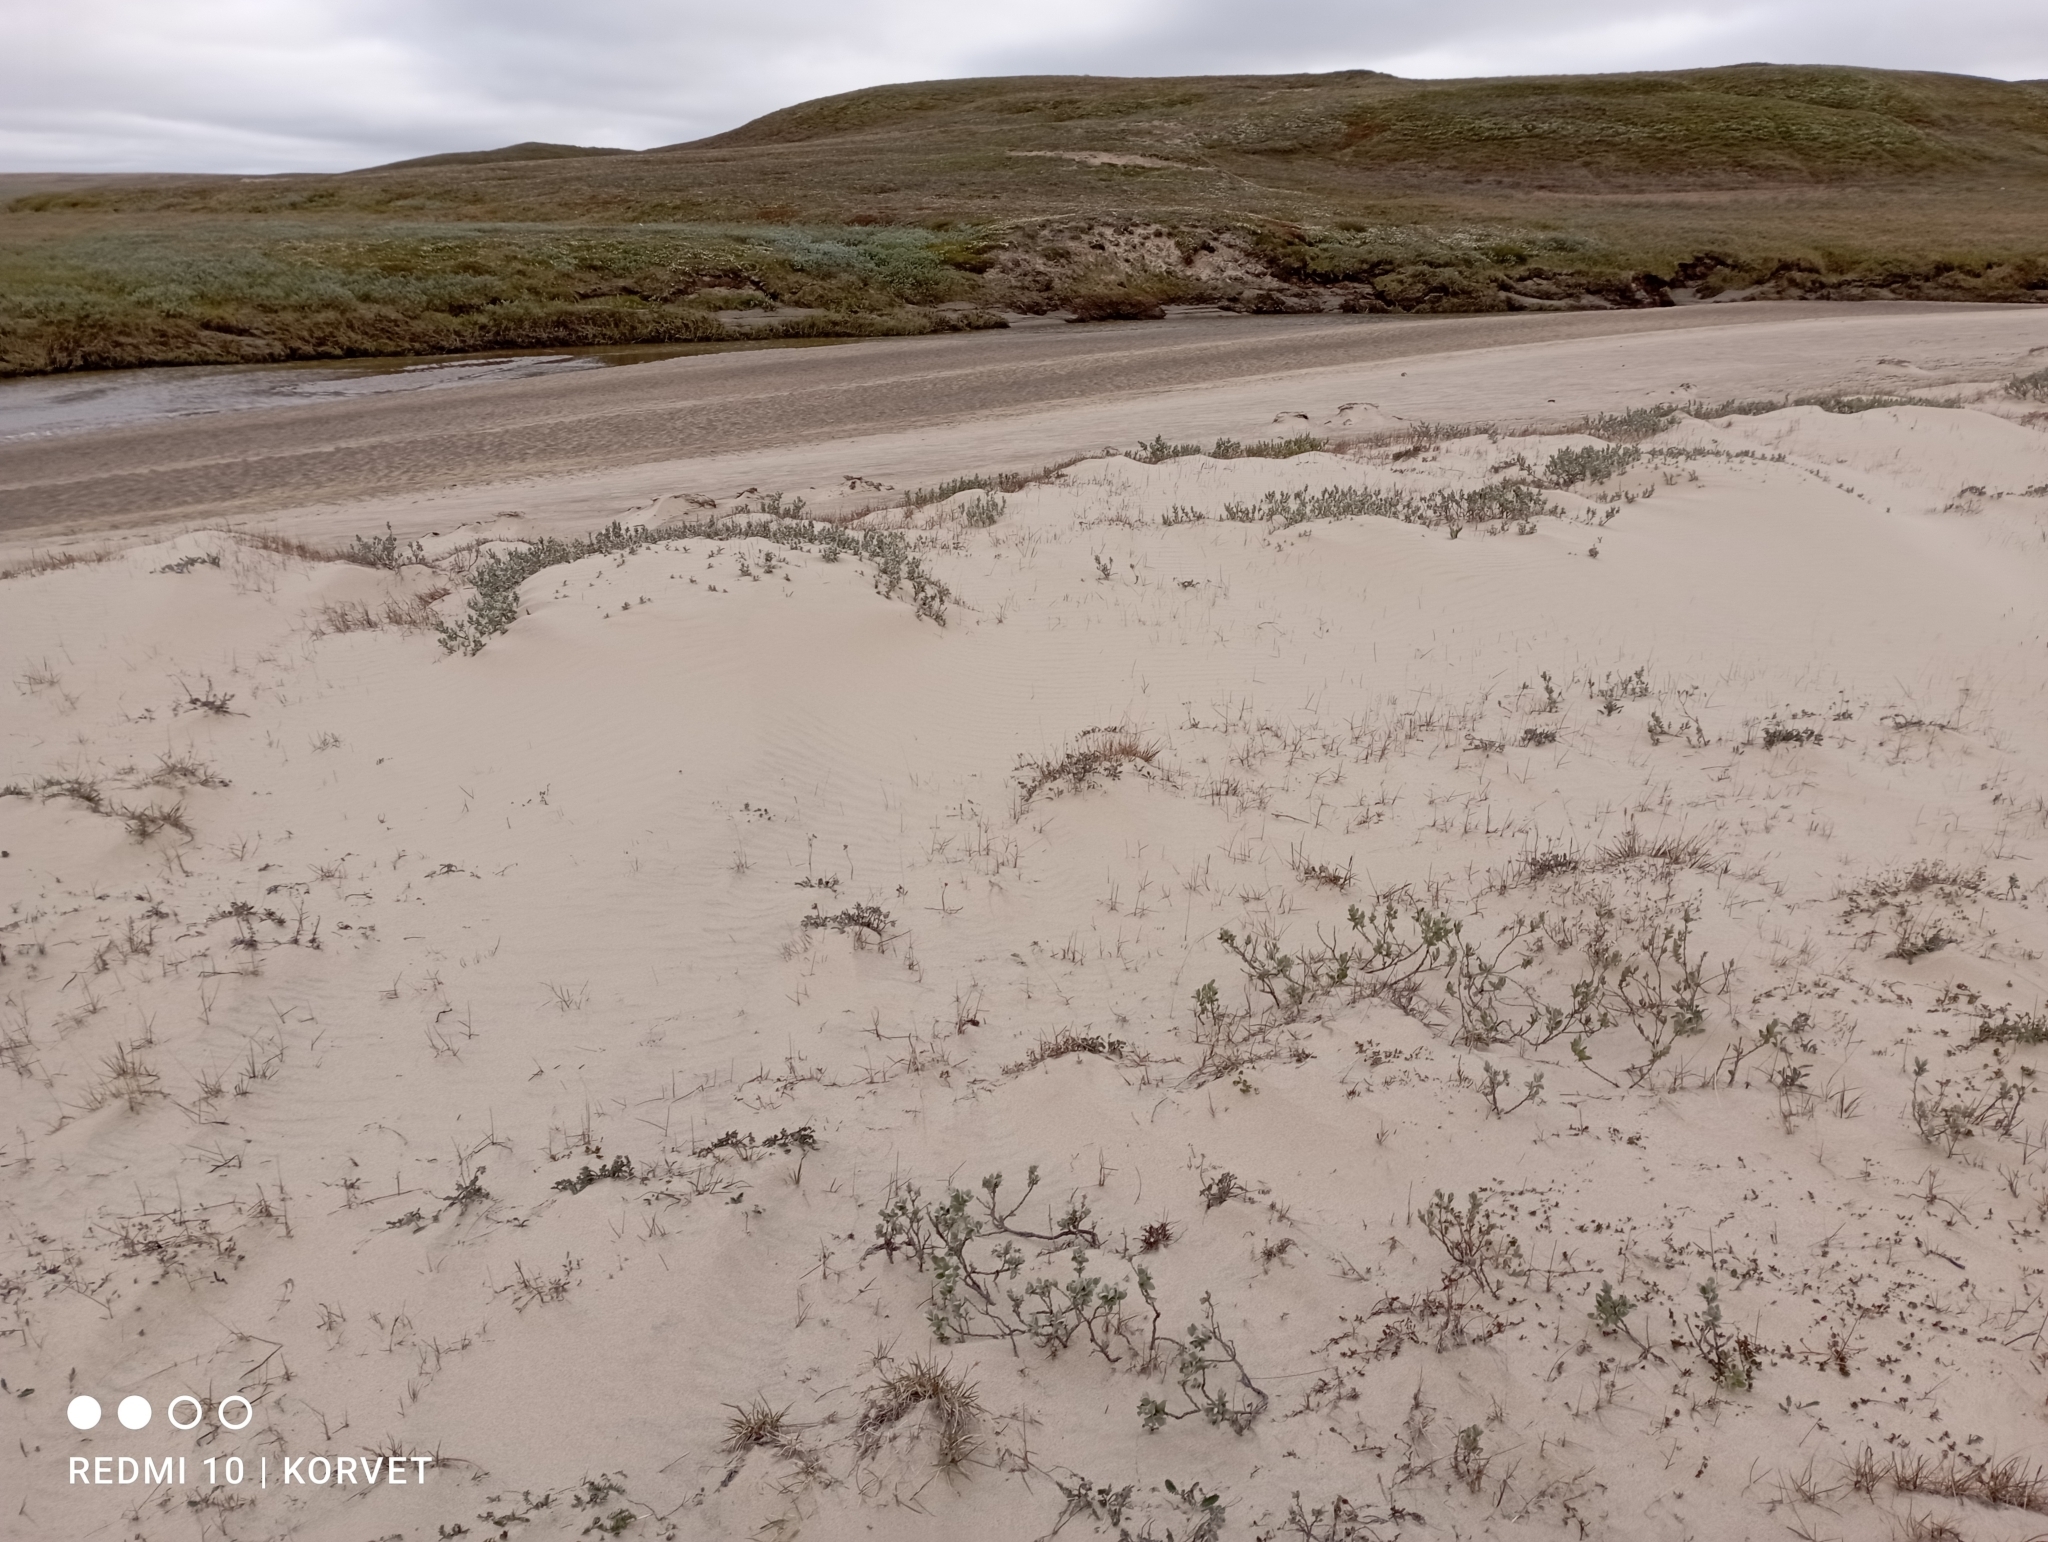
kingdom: Plantae
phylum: Tracheophyta
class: Magnoliopsida
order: Malpighiales
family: Salicaceae
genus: Salix
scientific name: Salix lanata
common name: Woolly willow
